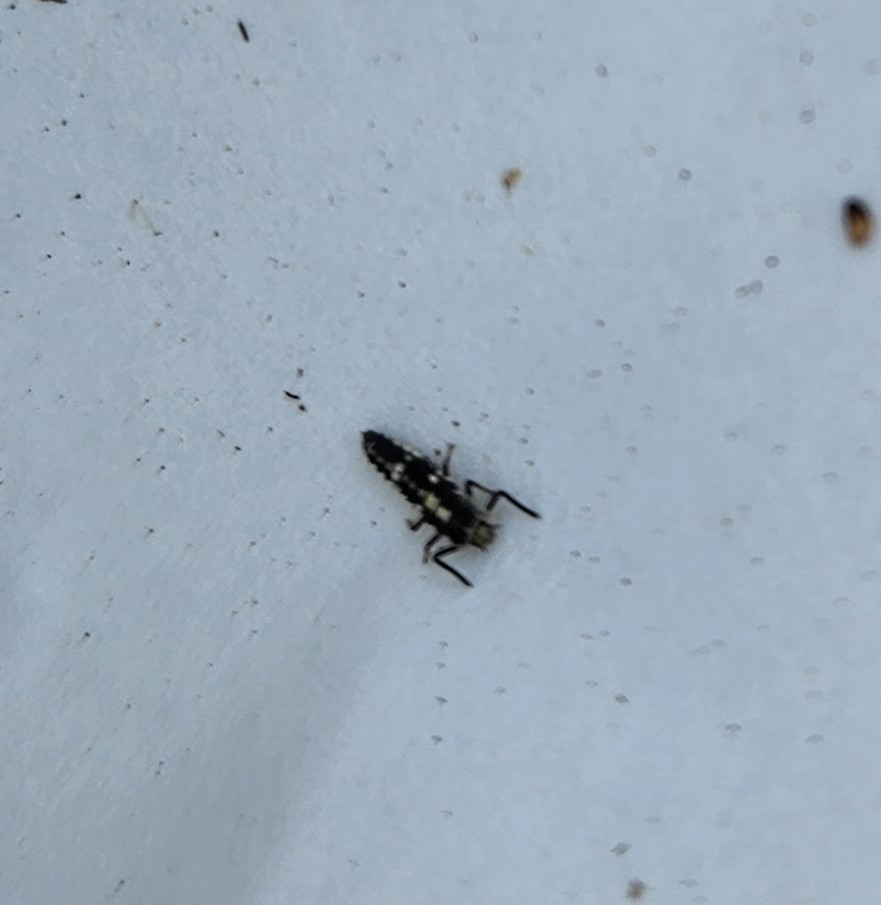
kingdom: Animalia
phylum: Arthropoda
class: Insecta
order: Coleoptera
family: Coccinellidae
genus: Propylaea
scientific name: Propylaea quatuordecimpunctata
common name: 14-spotted ladybird beetle
